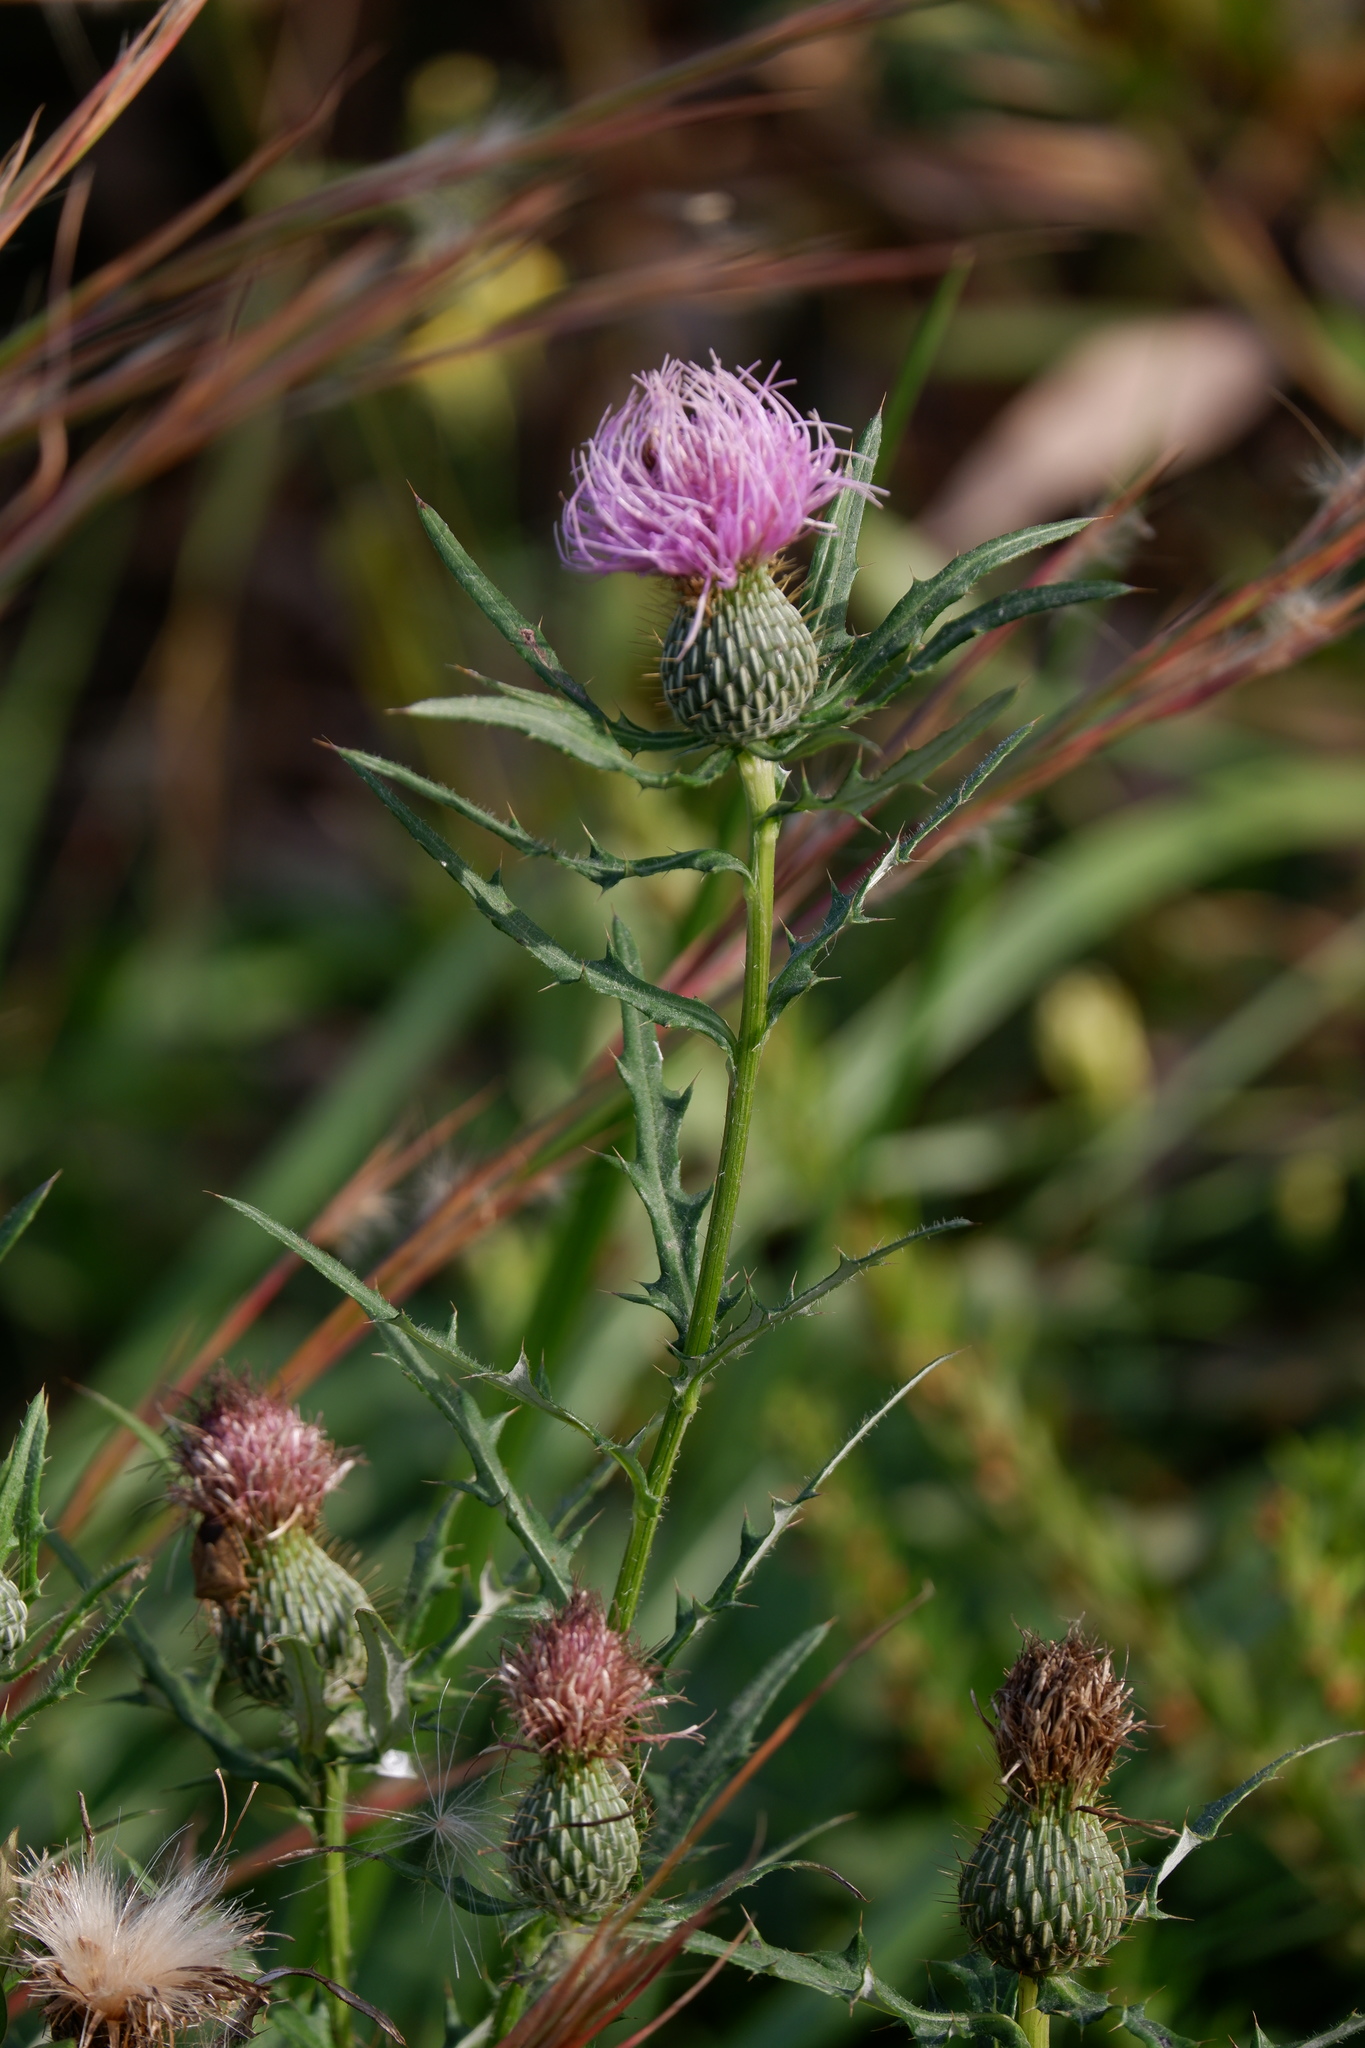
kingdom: Plantae
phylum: Tracheophyta
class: Magnoliopsida
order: Asterales
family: Asteraceae
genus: Cirsium
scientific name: Cirsium discolor
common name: Field thistle
